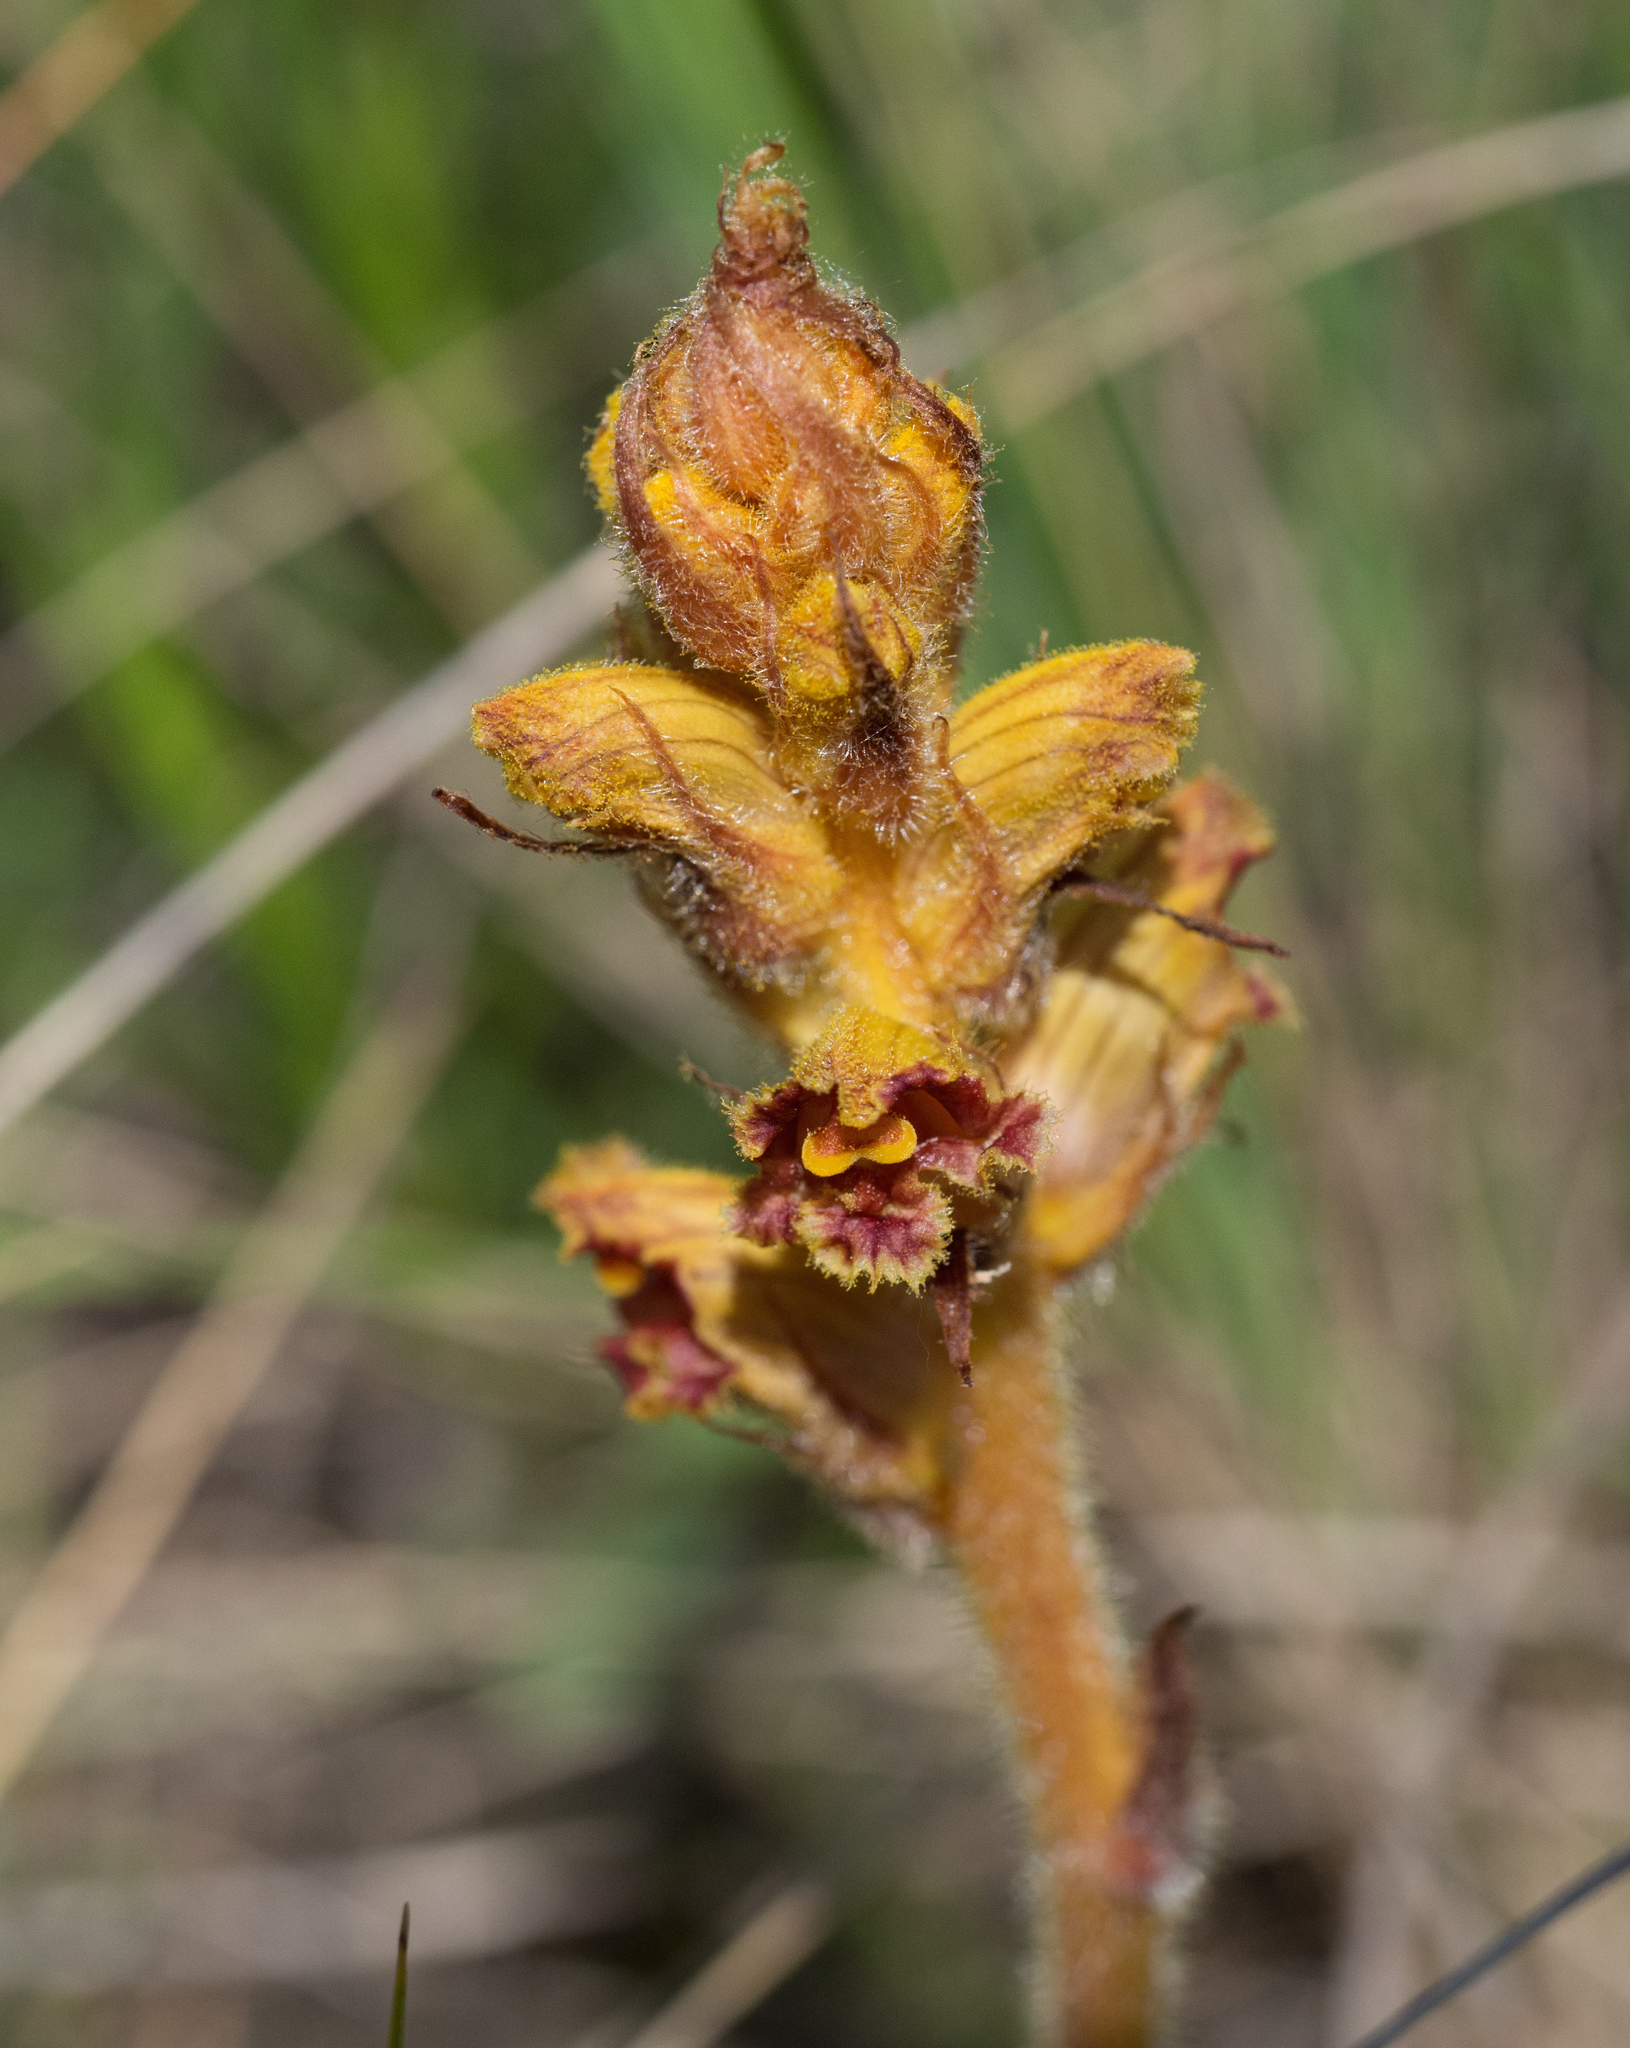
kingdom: Plantae
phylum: Tracheophyta
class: Magnoliopsida
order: Lamiales
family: Orobanchaceae
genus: Orobanche
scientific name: Orobanche gracilis
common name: Slender broomrape
